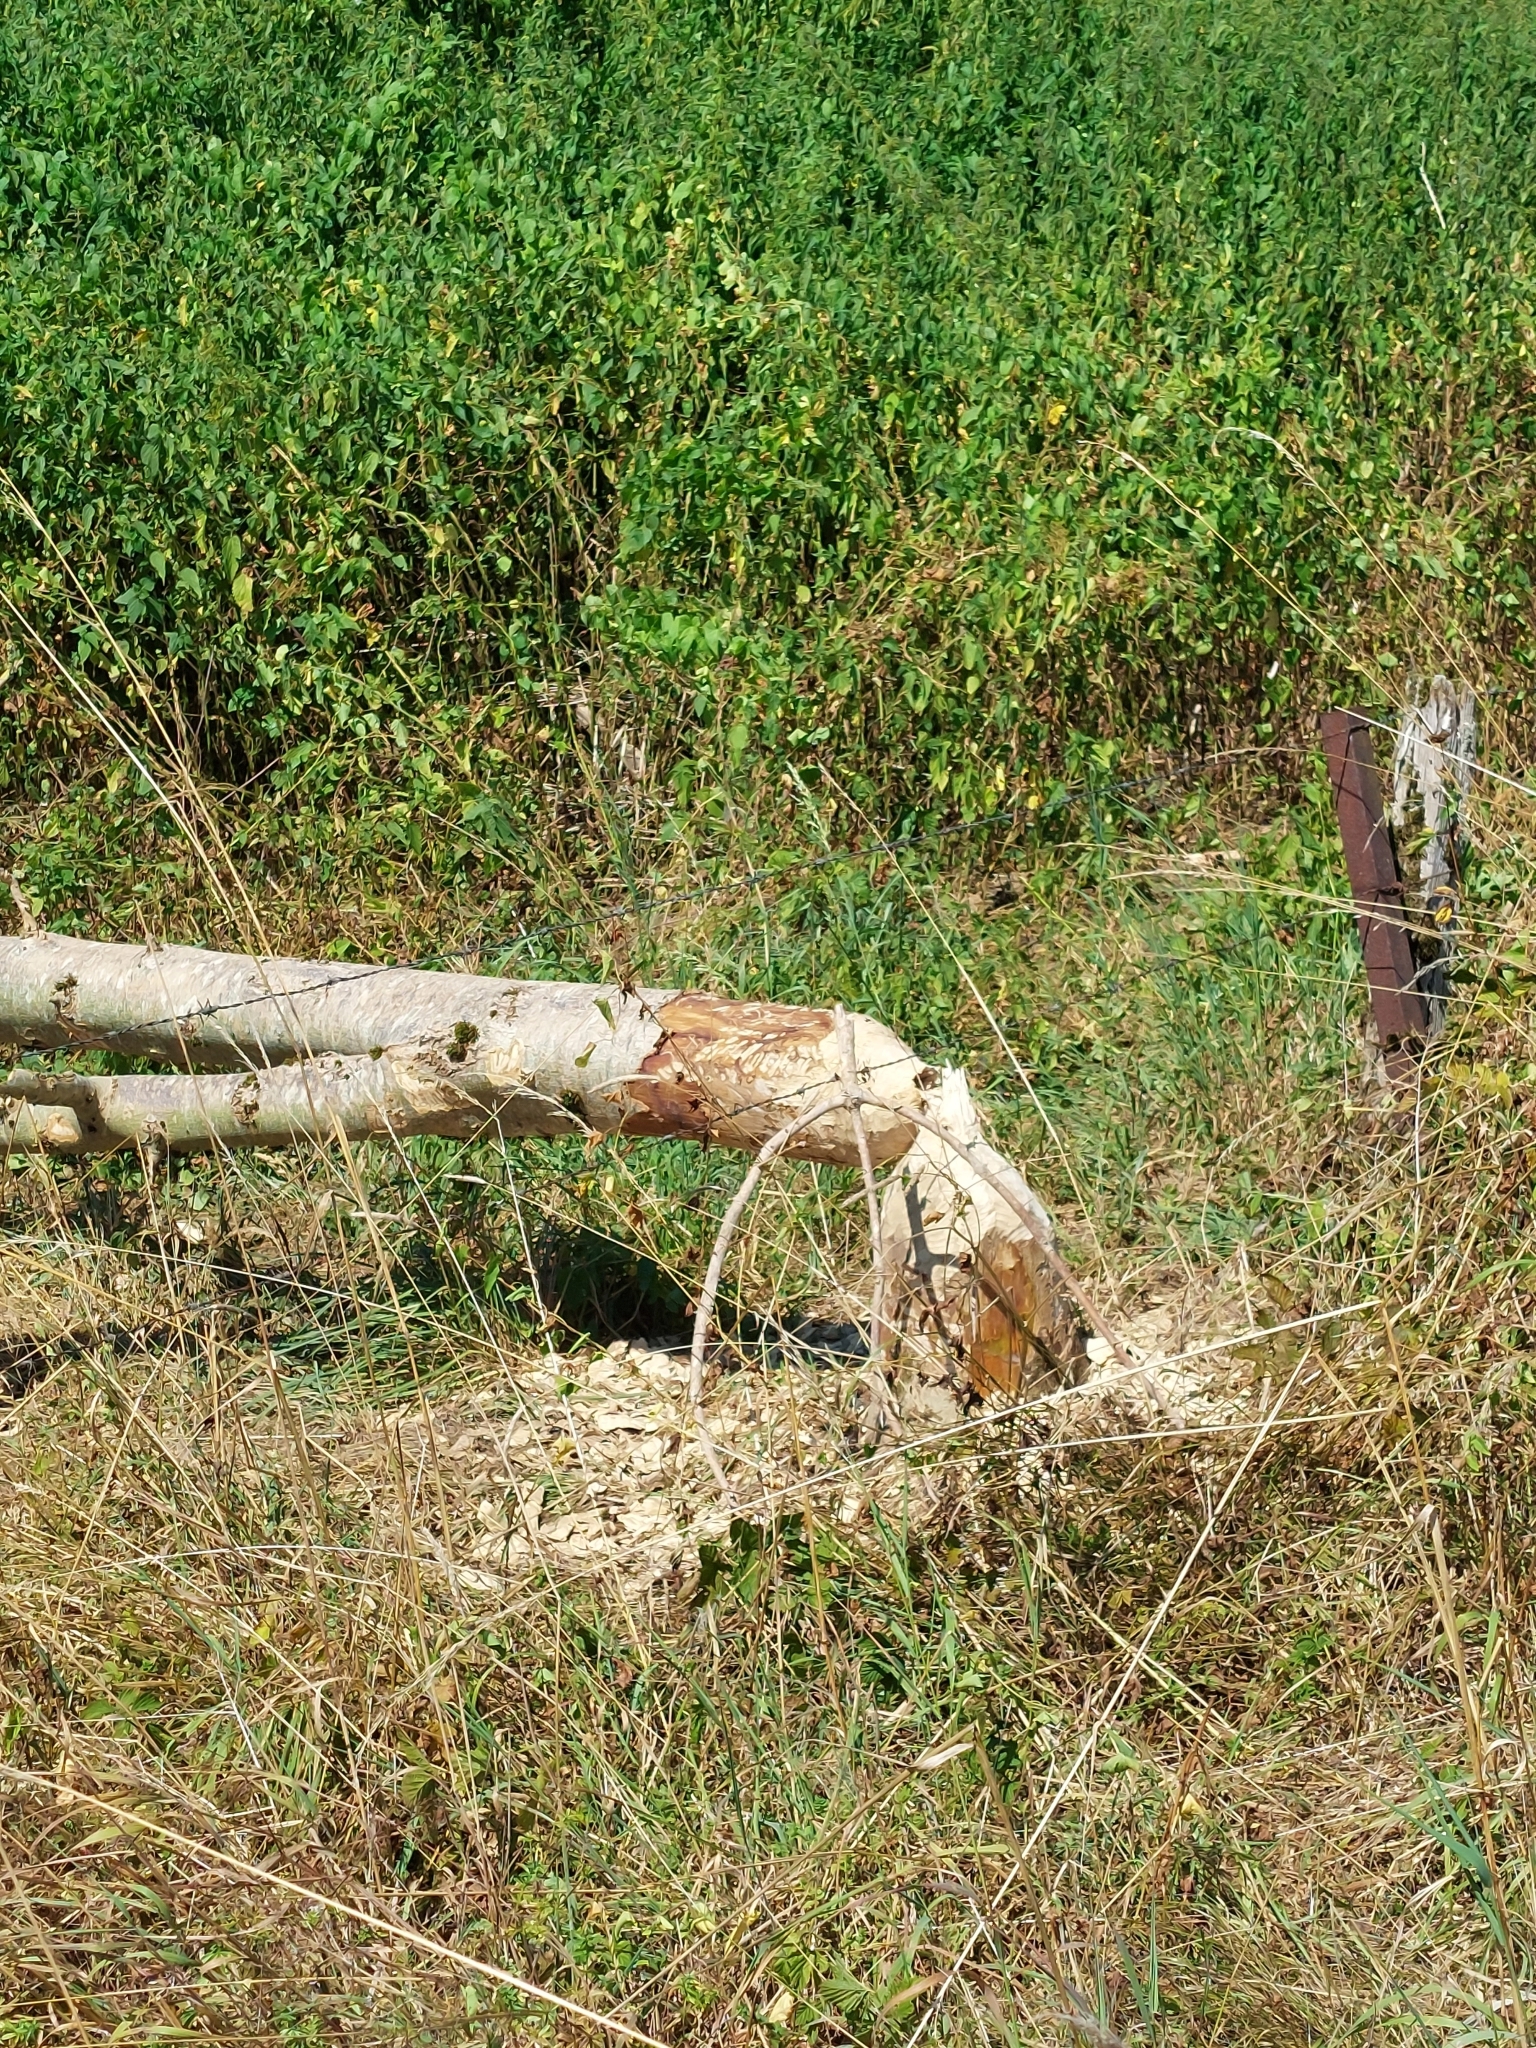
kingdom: Animalia
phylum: Chordata
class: Mammalia
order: Rodentia
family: Castoridae
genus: Castor
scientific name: Castor fiber
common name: Eurasian beaver
